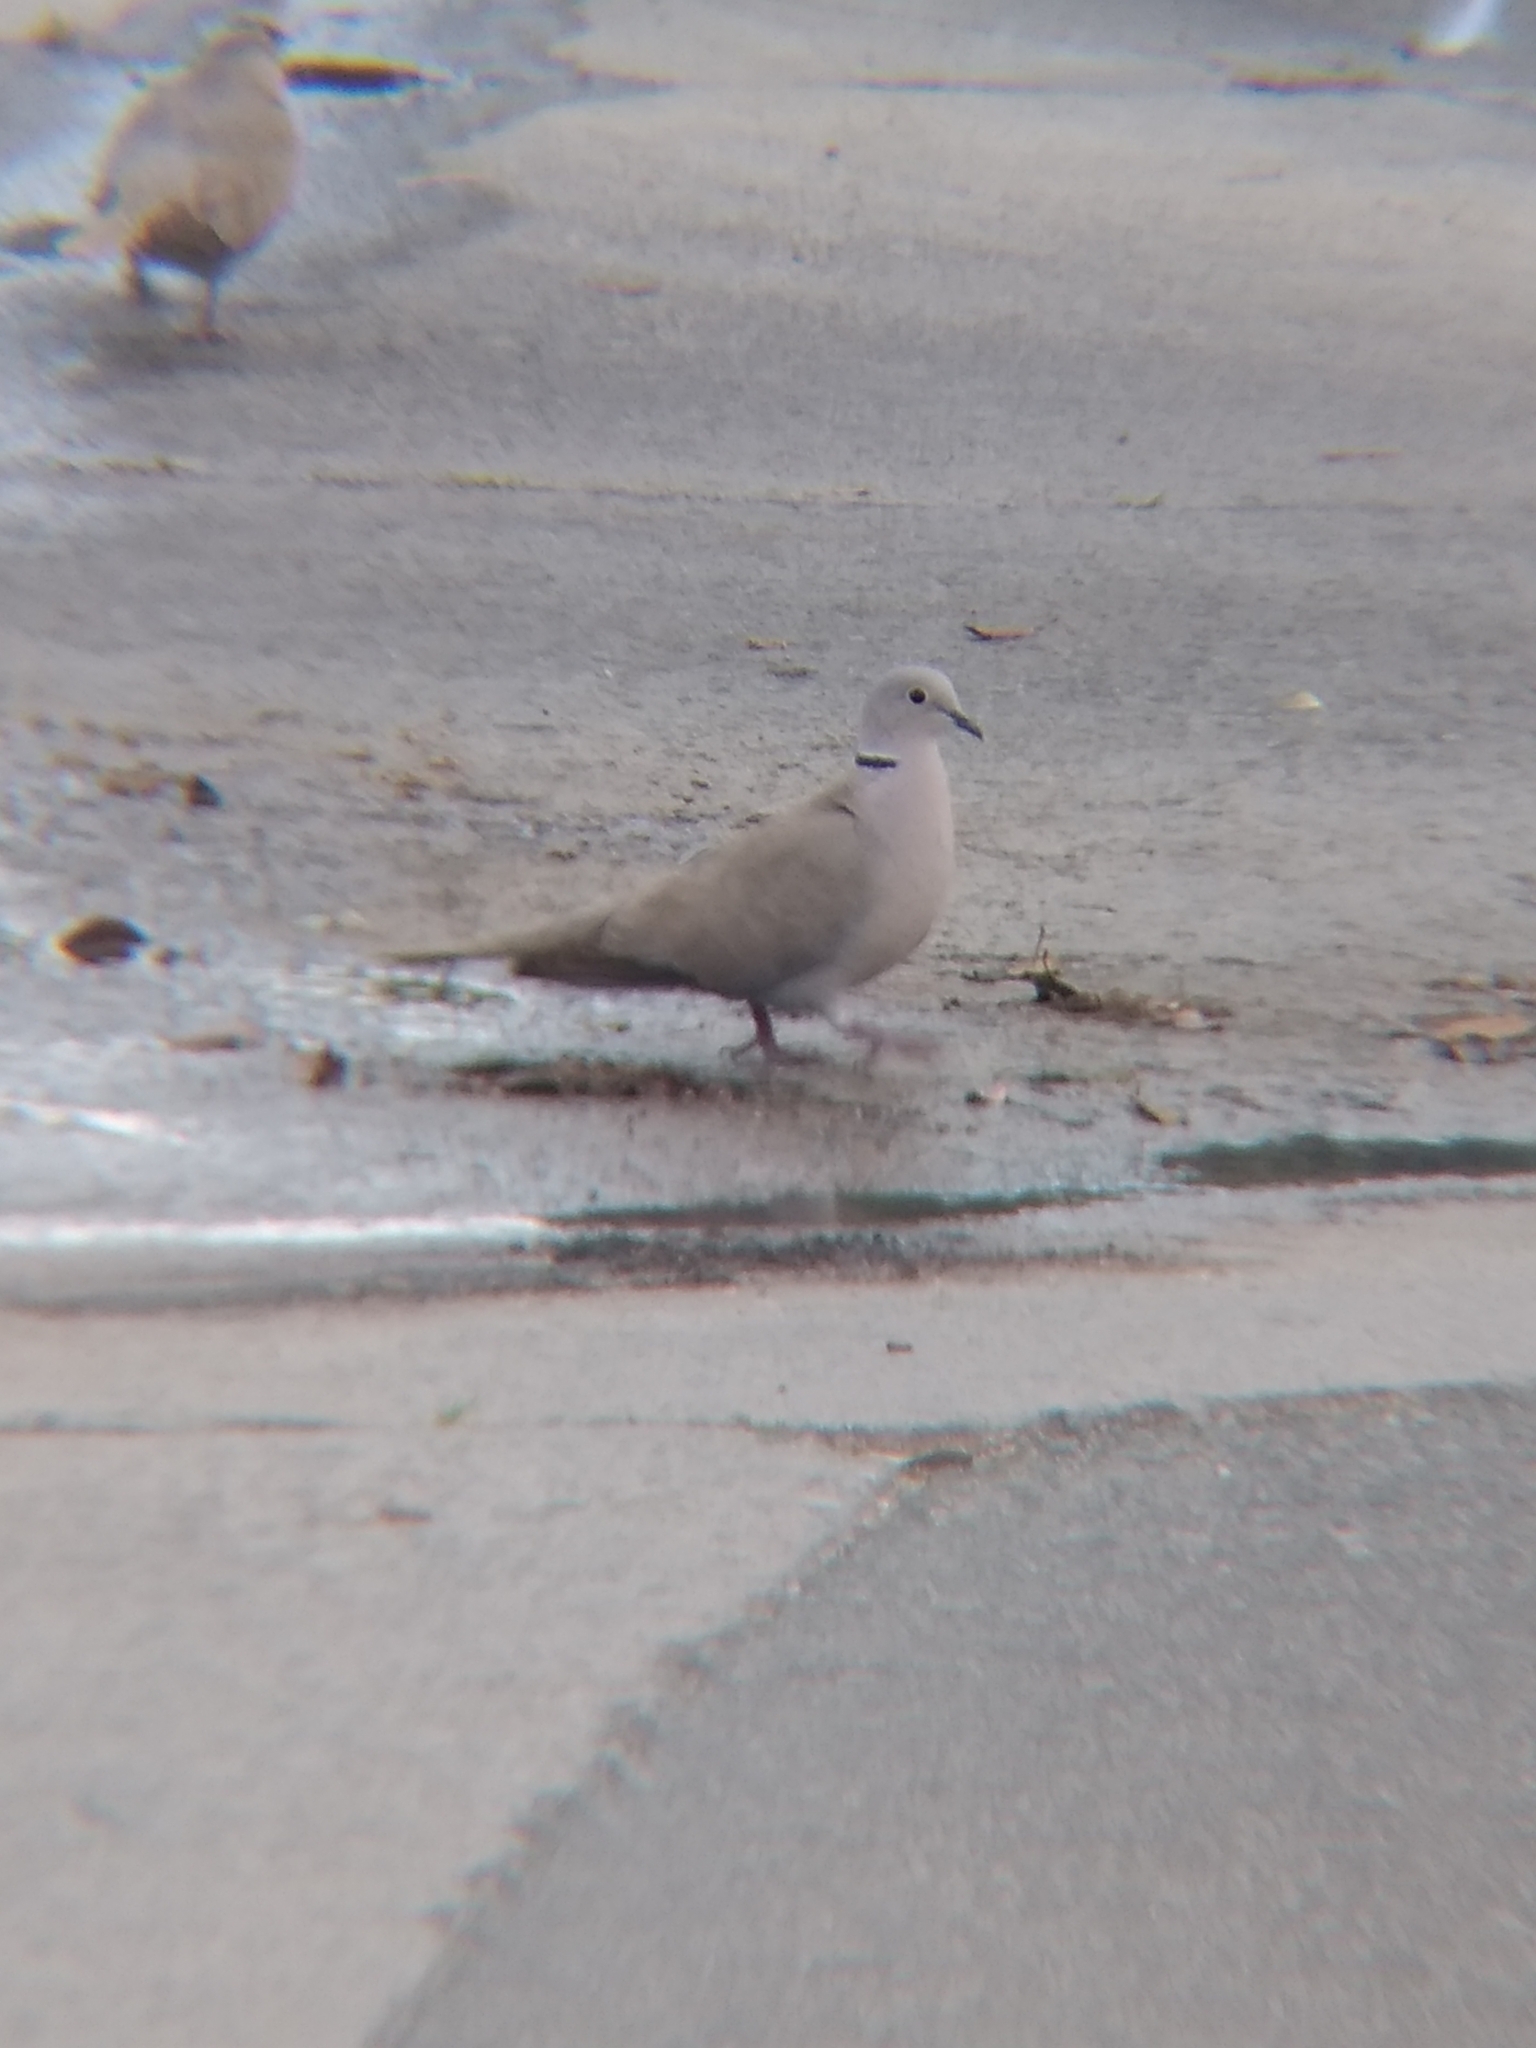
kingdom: Animalia
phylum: Chordata
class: Aves
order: Columbiformes
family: Columbidae
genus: Streptopelia
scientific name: Streptopelia decaocto
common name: Eurasian collared dove
